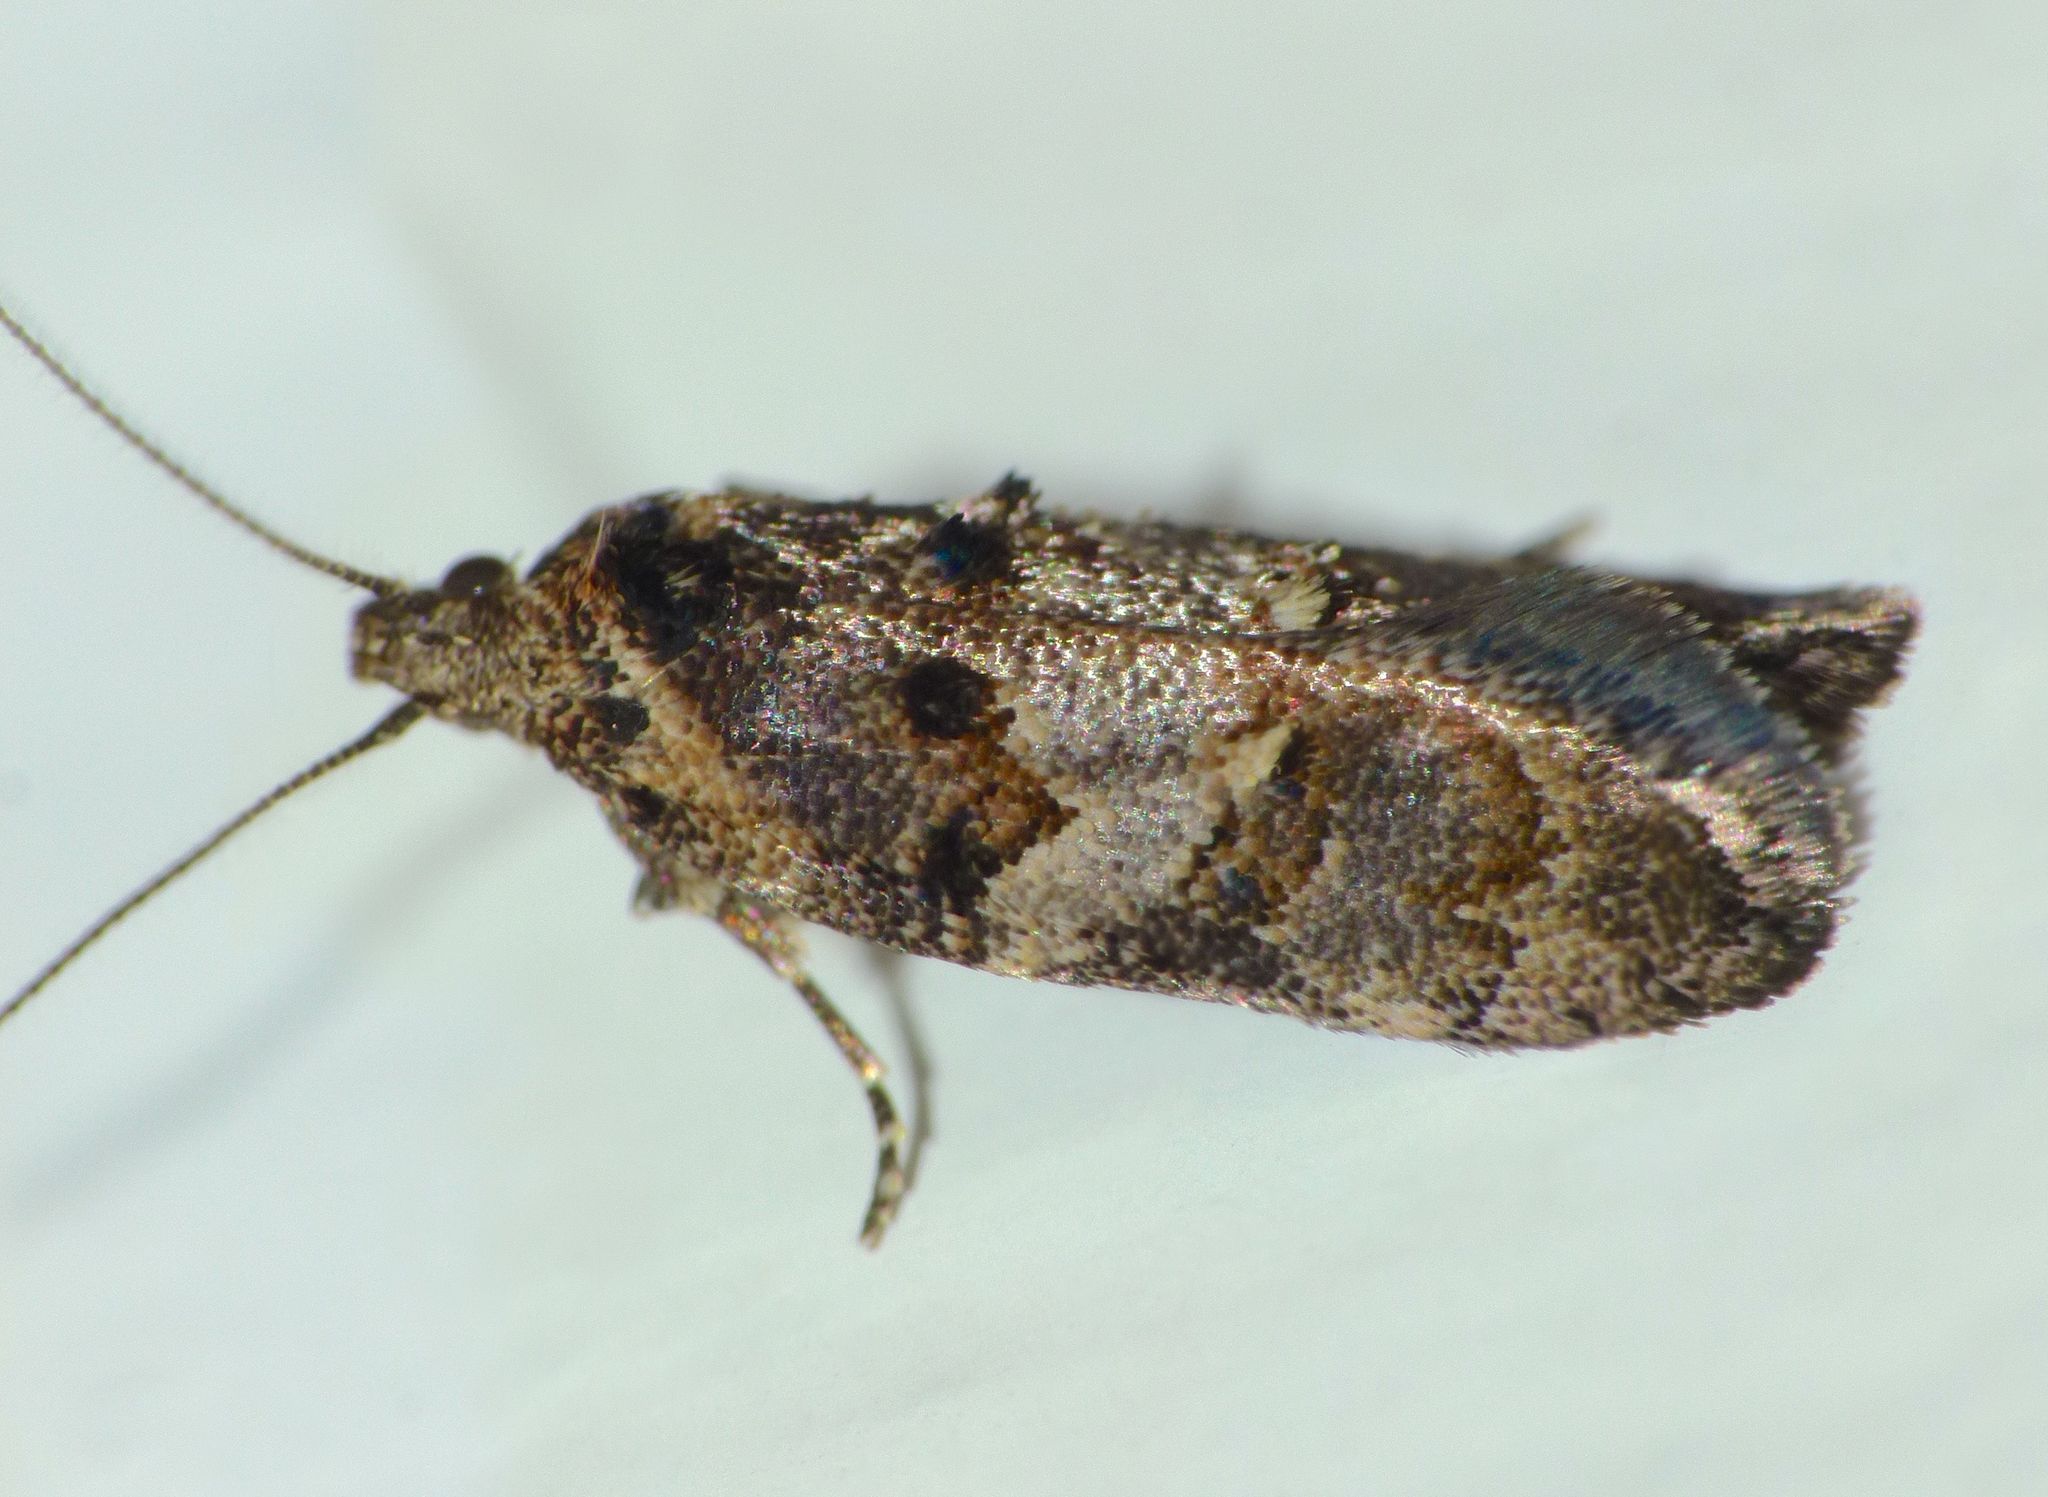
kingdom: Animalia
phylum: Arthropoda
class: Insecta
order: Lepidoptera
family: Oecophoridae
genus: Trachypepla
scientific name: Trachypepla galaxias
